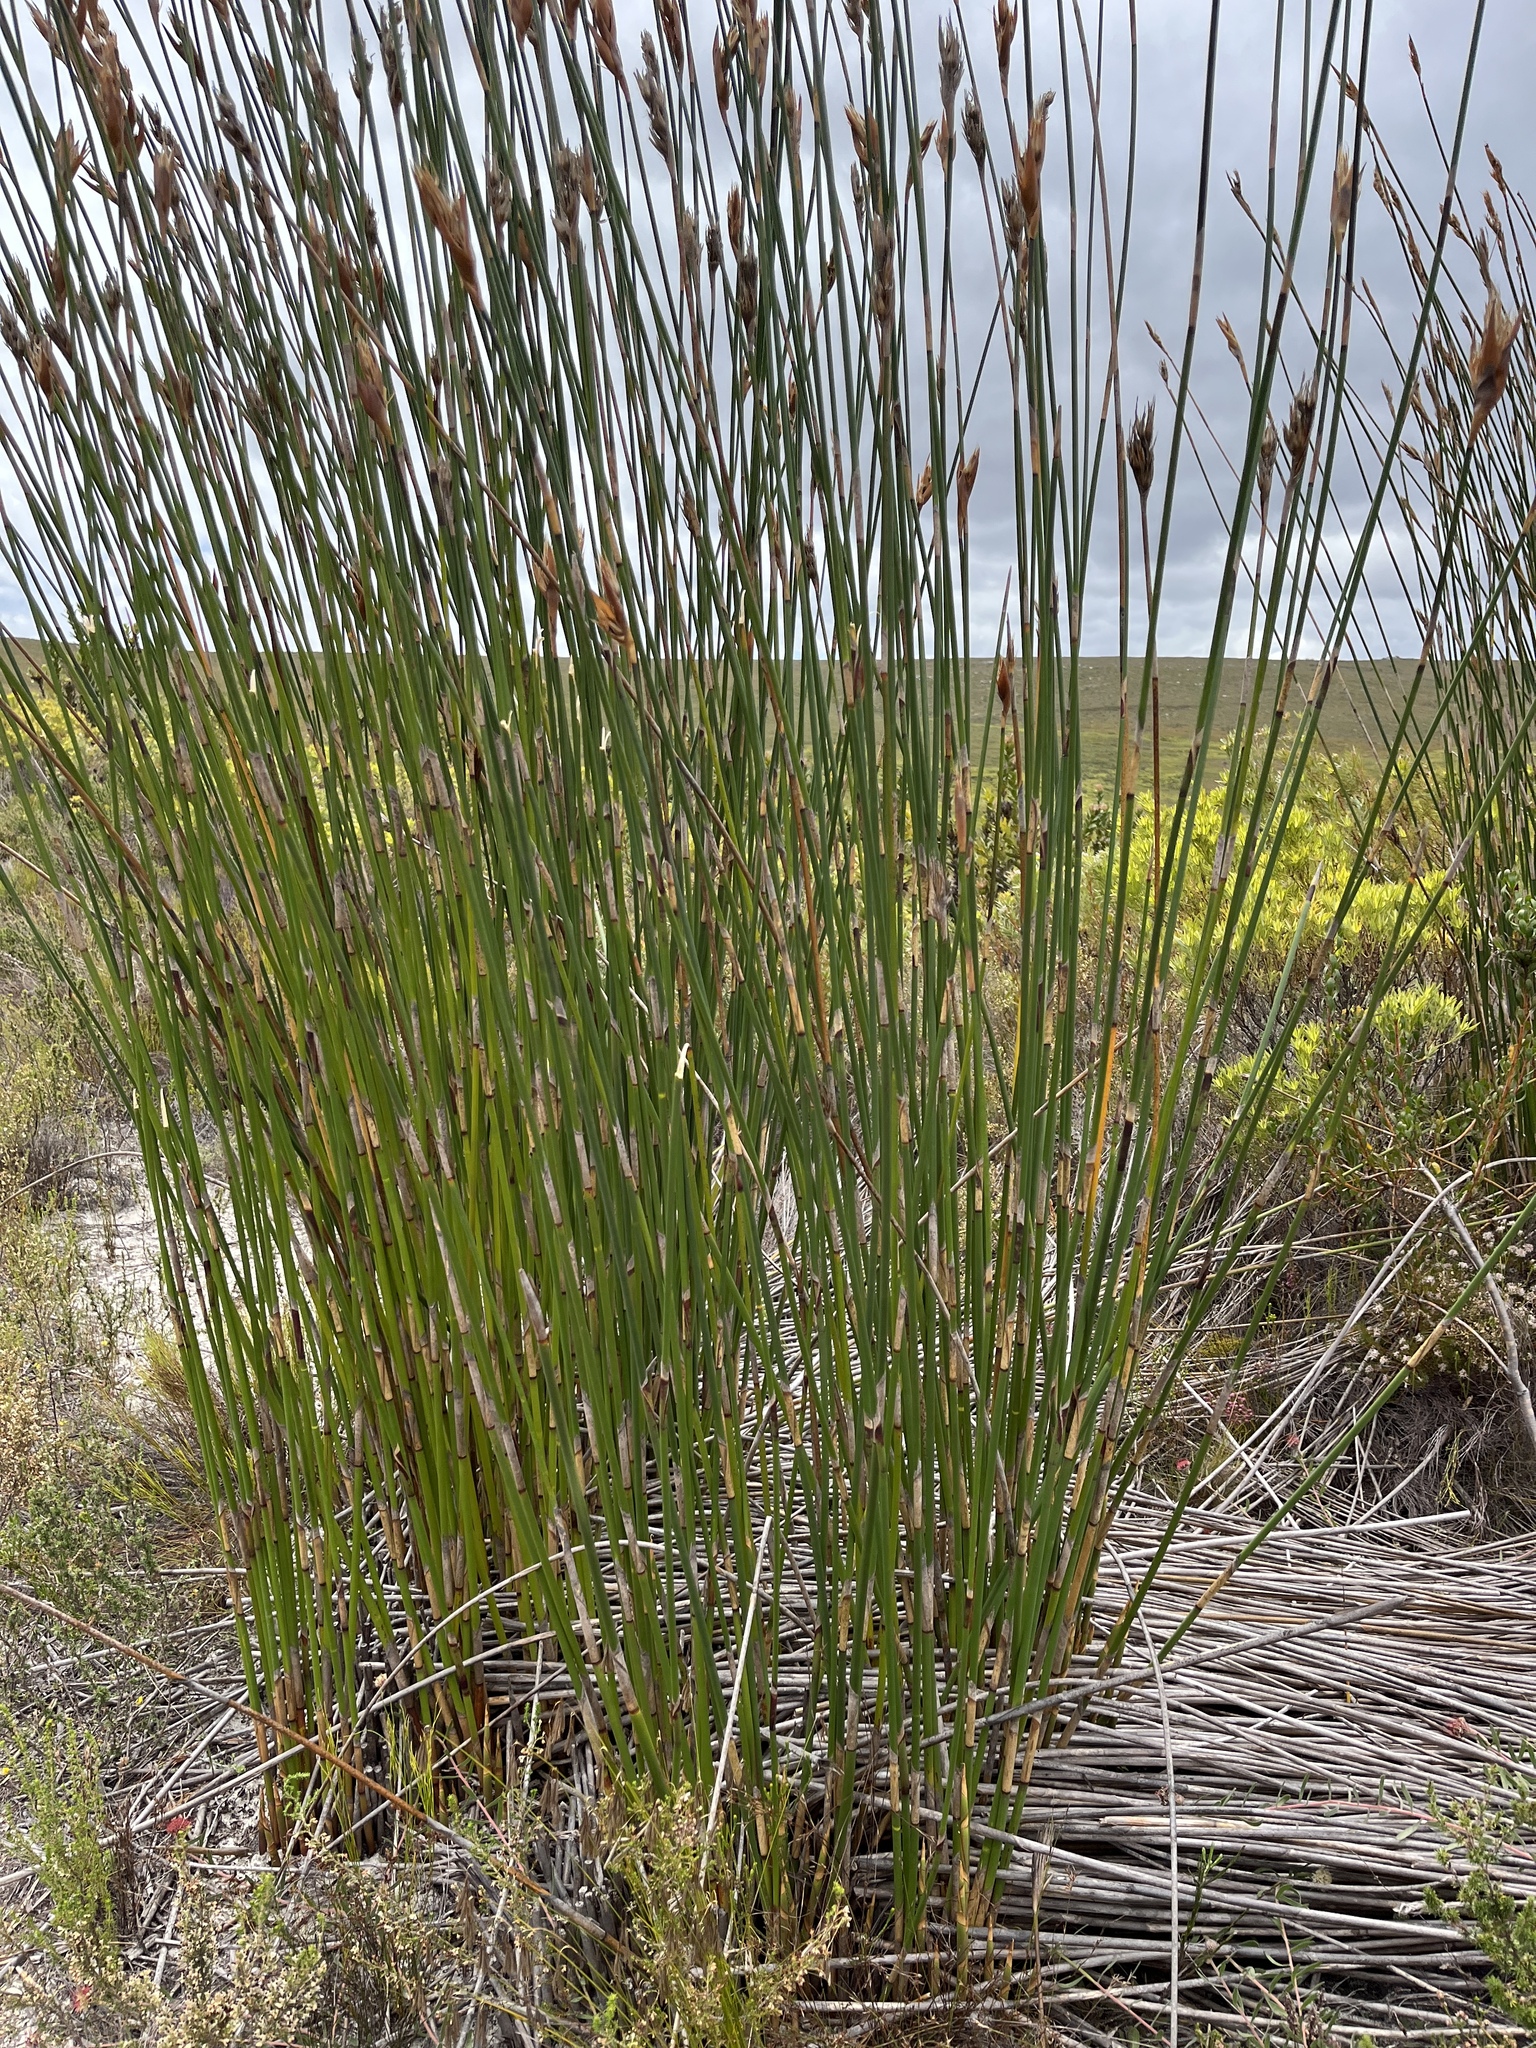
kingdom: Plantae
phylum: Tracheophyta
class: Liliopsida
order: Poales
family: Restionaceae
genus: Ceratocaryum
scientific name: Ceratocaryum argenteum
